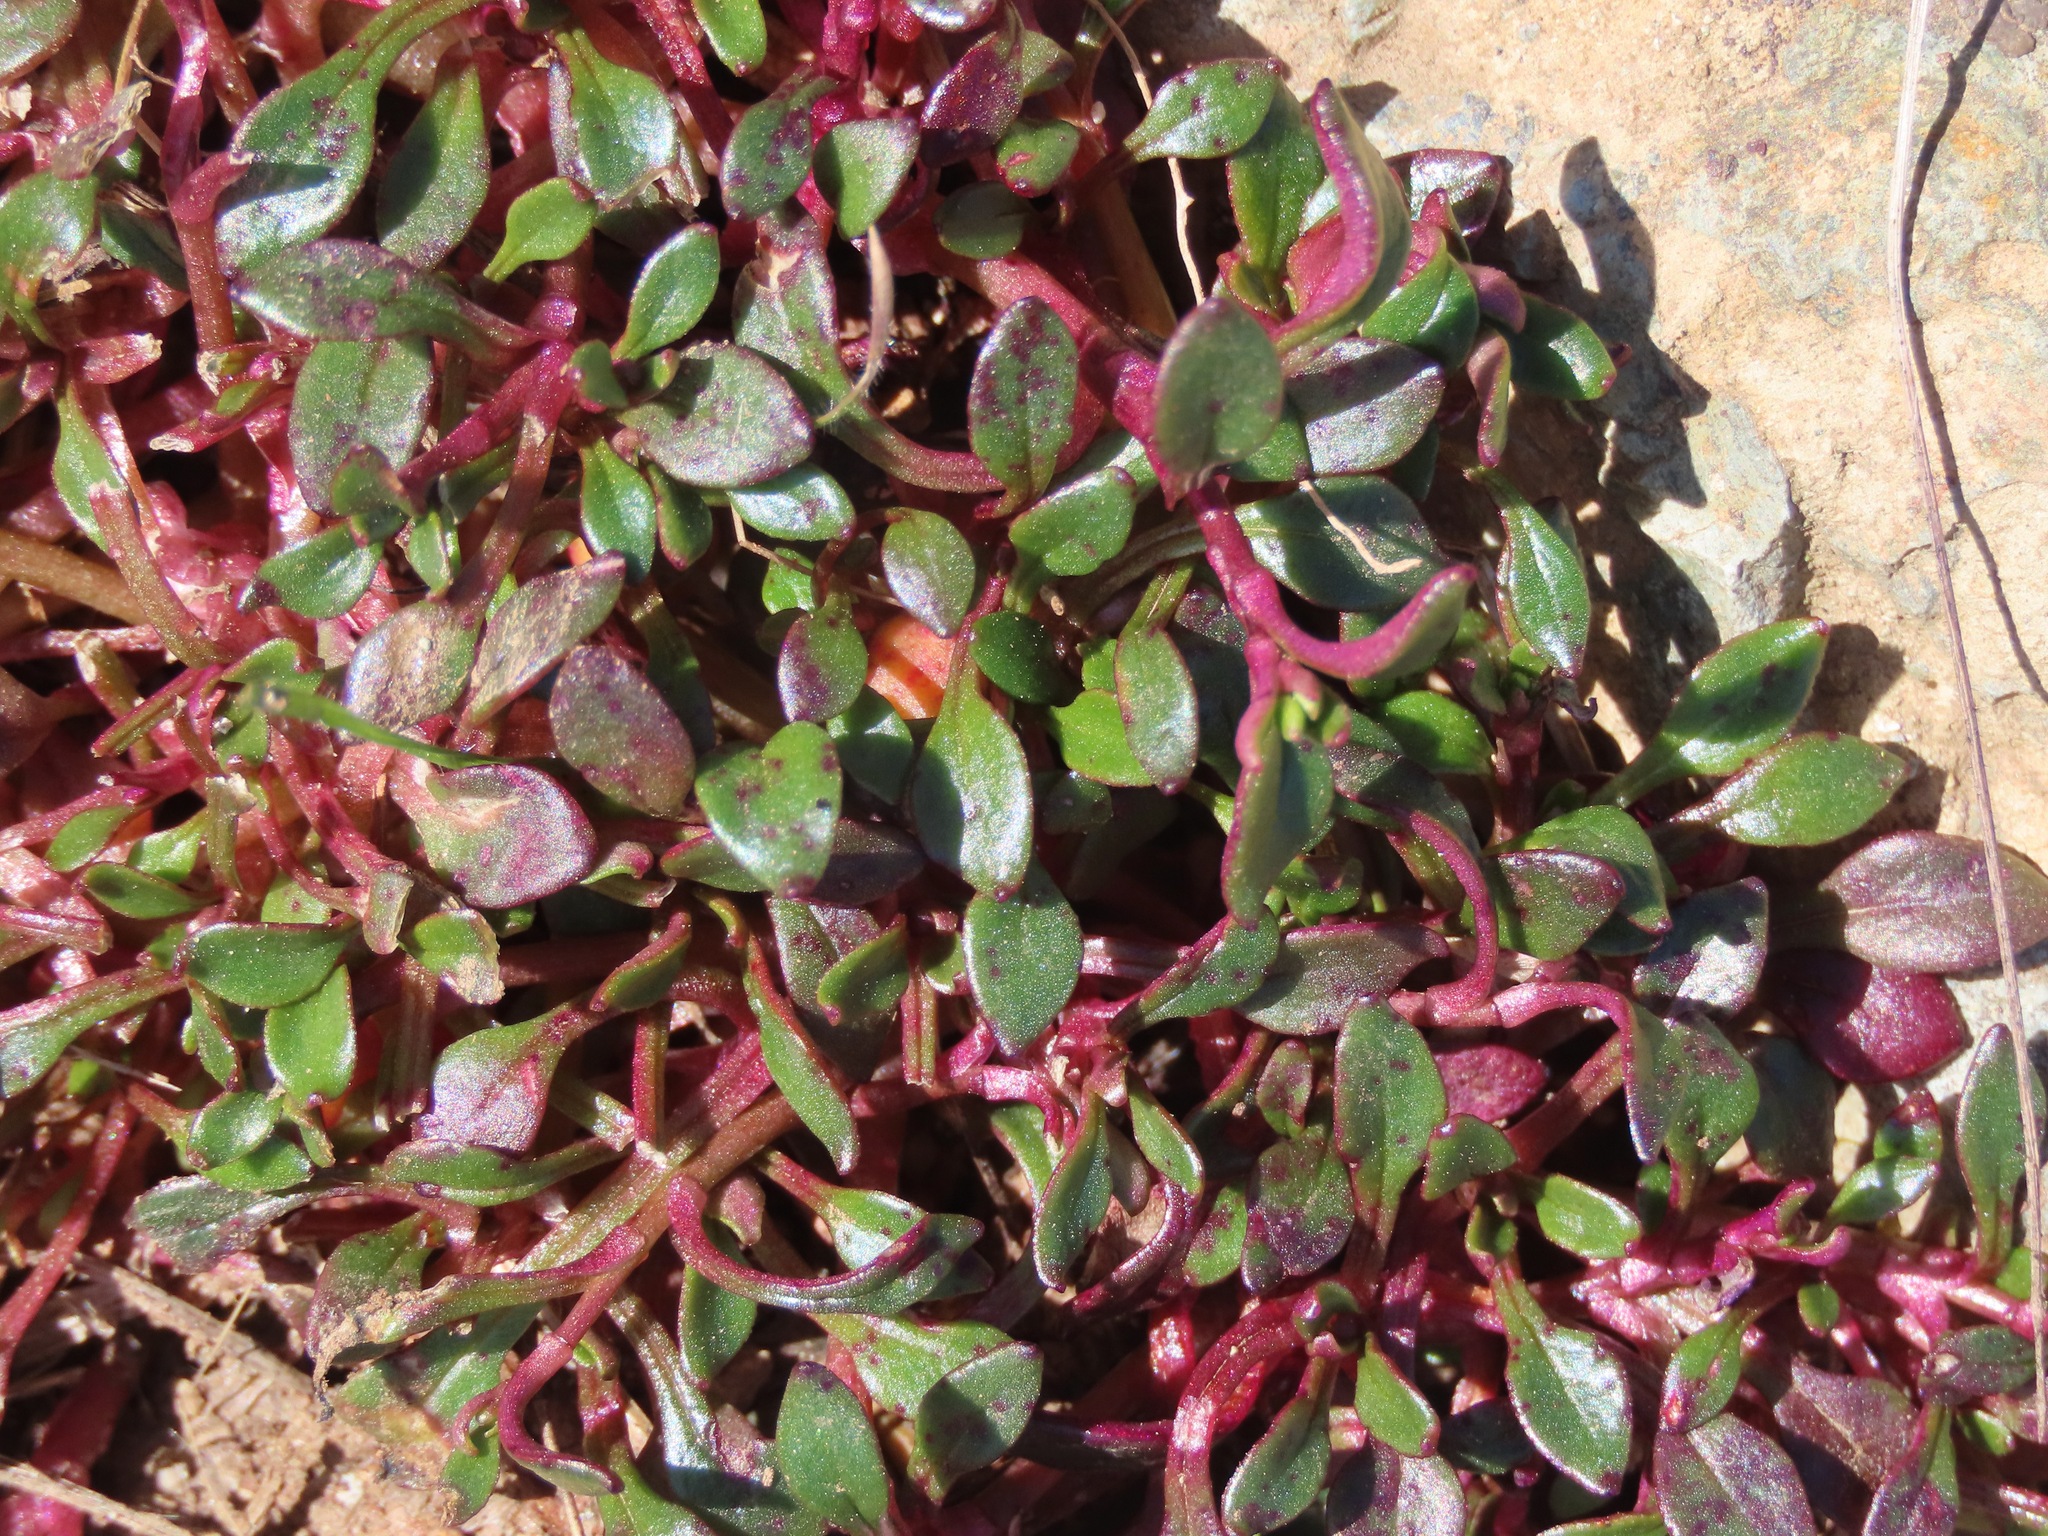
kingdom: Plantae
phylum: Tracheophyta
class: Magnoliopsida
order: Caryophyllales
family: Montiaceae
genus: Montia
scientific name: Montia parvifolia
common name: Small-leaved blinks
